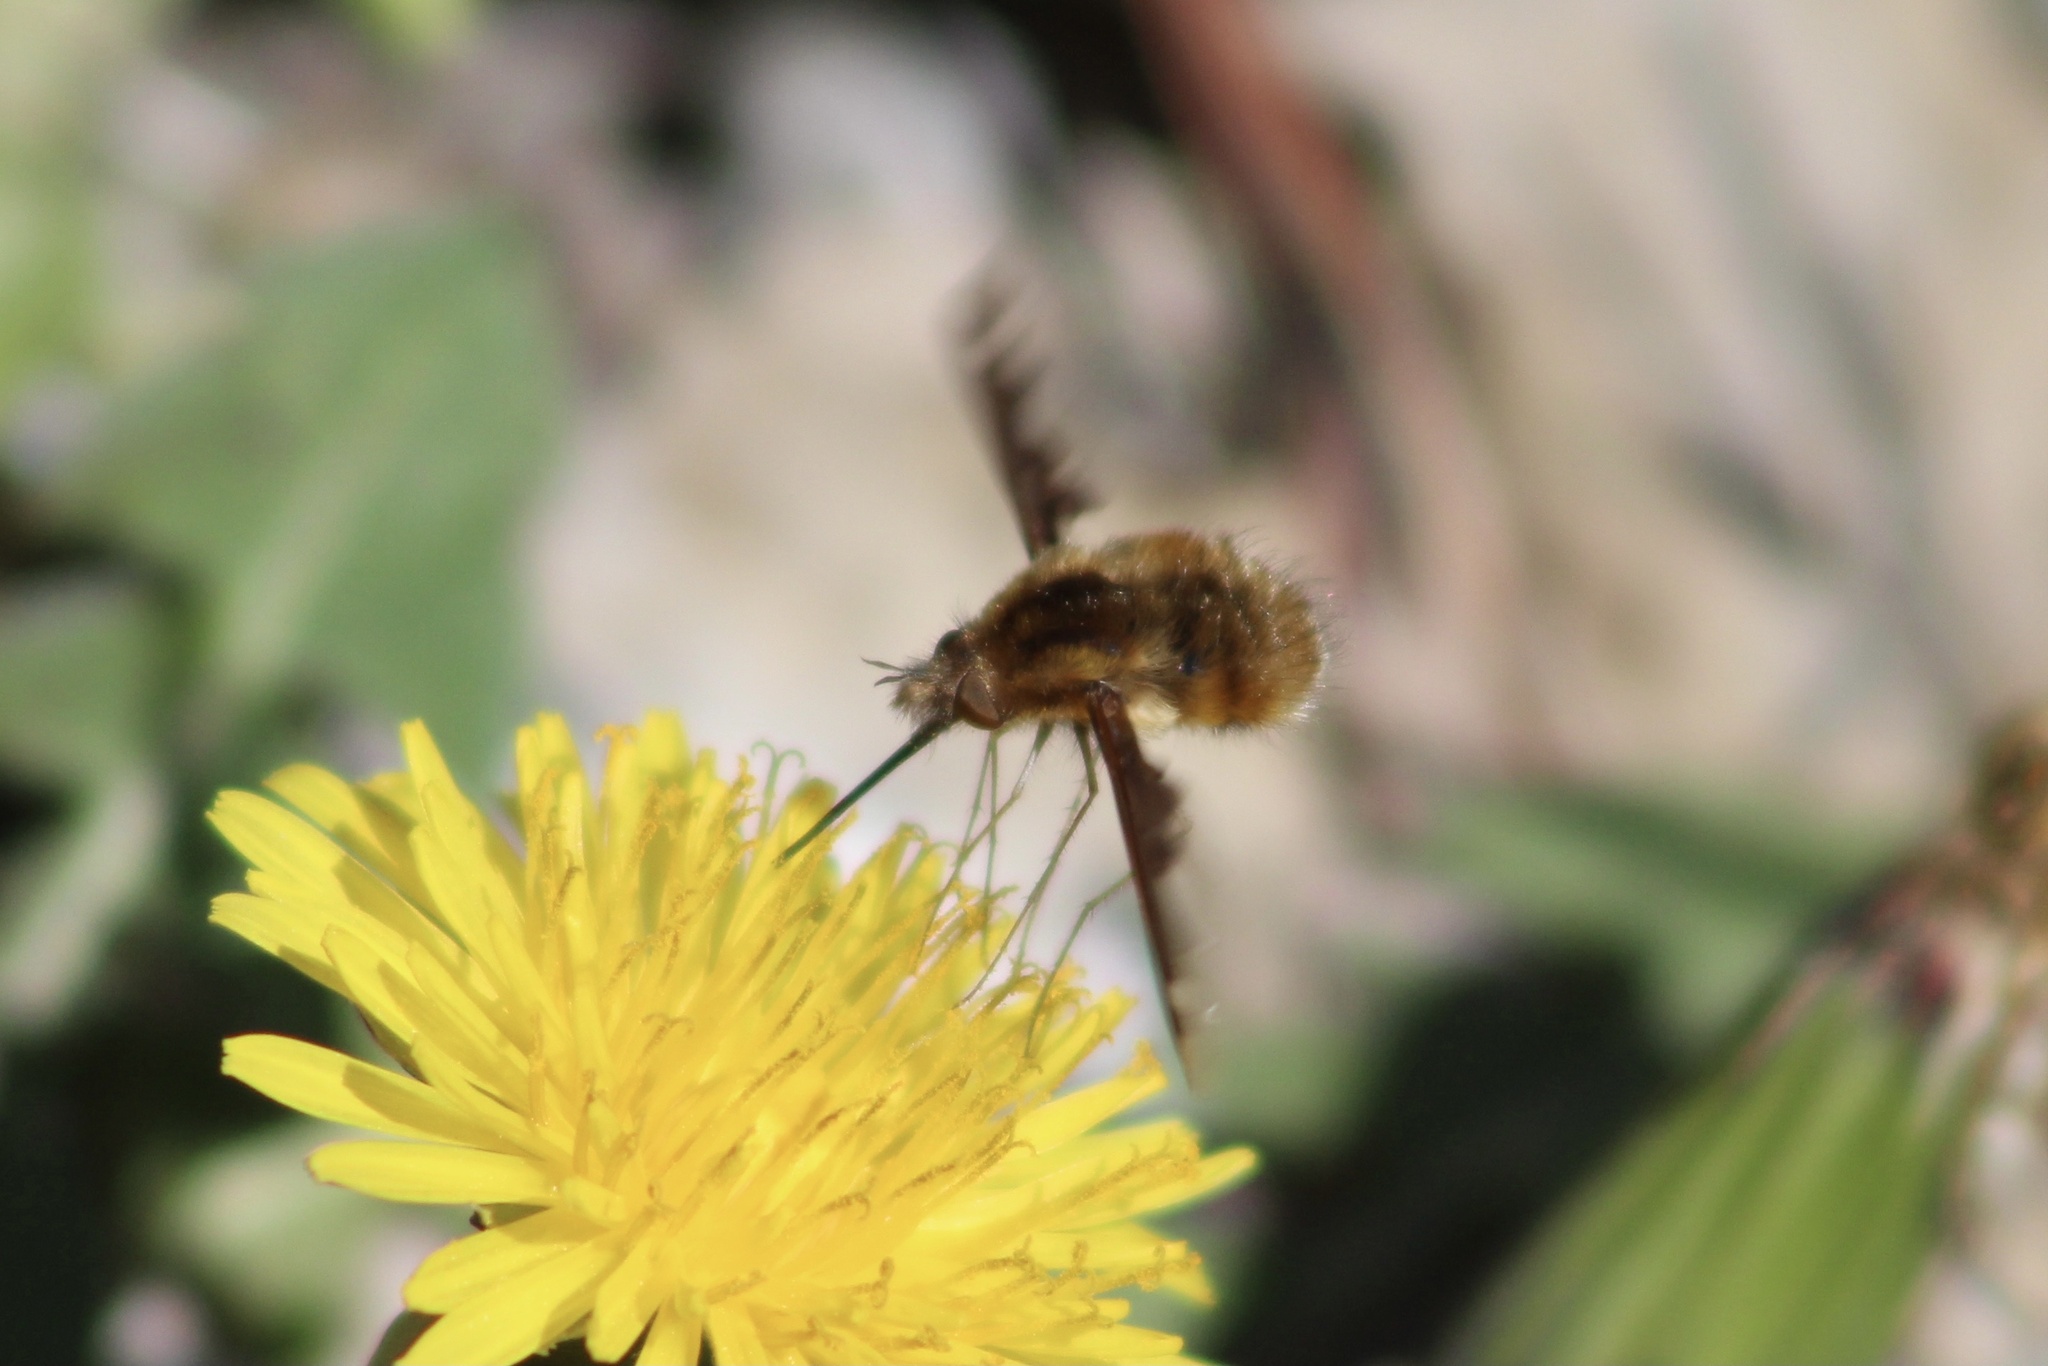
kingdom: Animalia
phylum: Arthropoda
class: Insecta
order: Diptera
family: Bombyliidae
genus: Bombylius
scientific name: Bombylius major
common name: Bee fly
